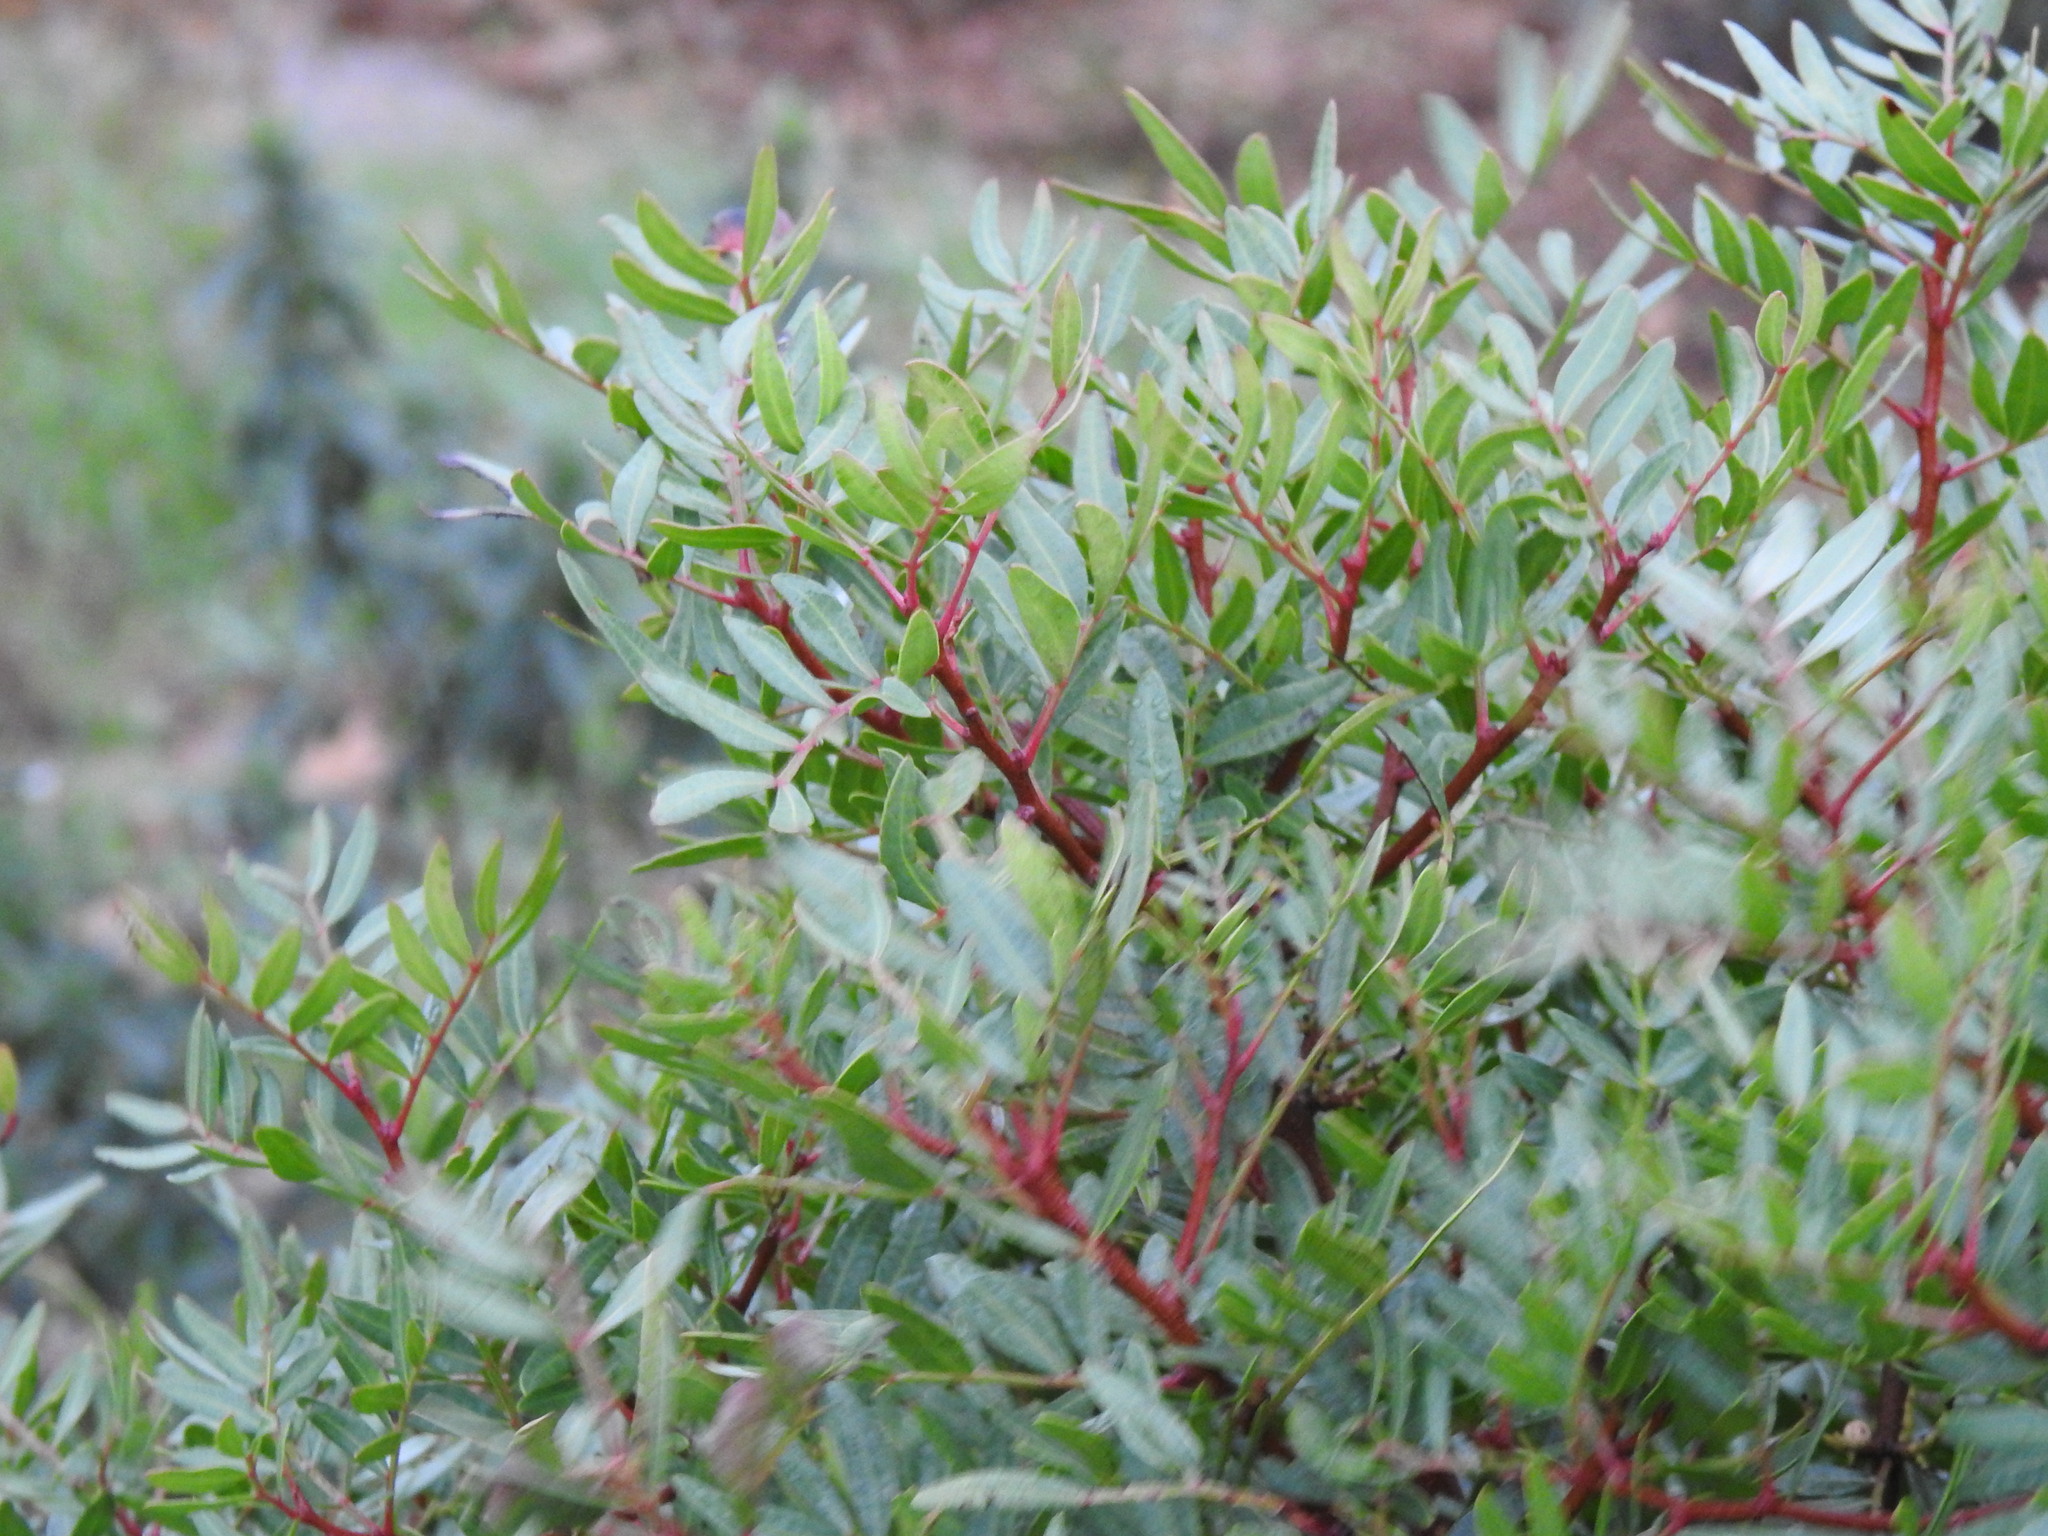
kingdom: Plantae
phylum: Tracheophyta
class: Magnoliopsida
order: Sapindales
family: Anacardiaceae
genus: Pistacia
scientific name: Pistacia lentiscus
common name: Lentisk
